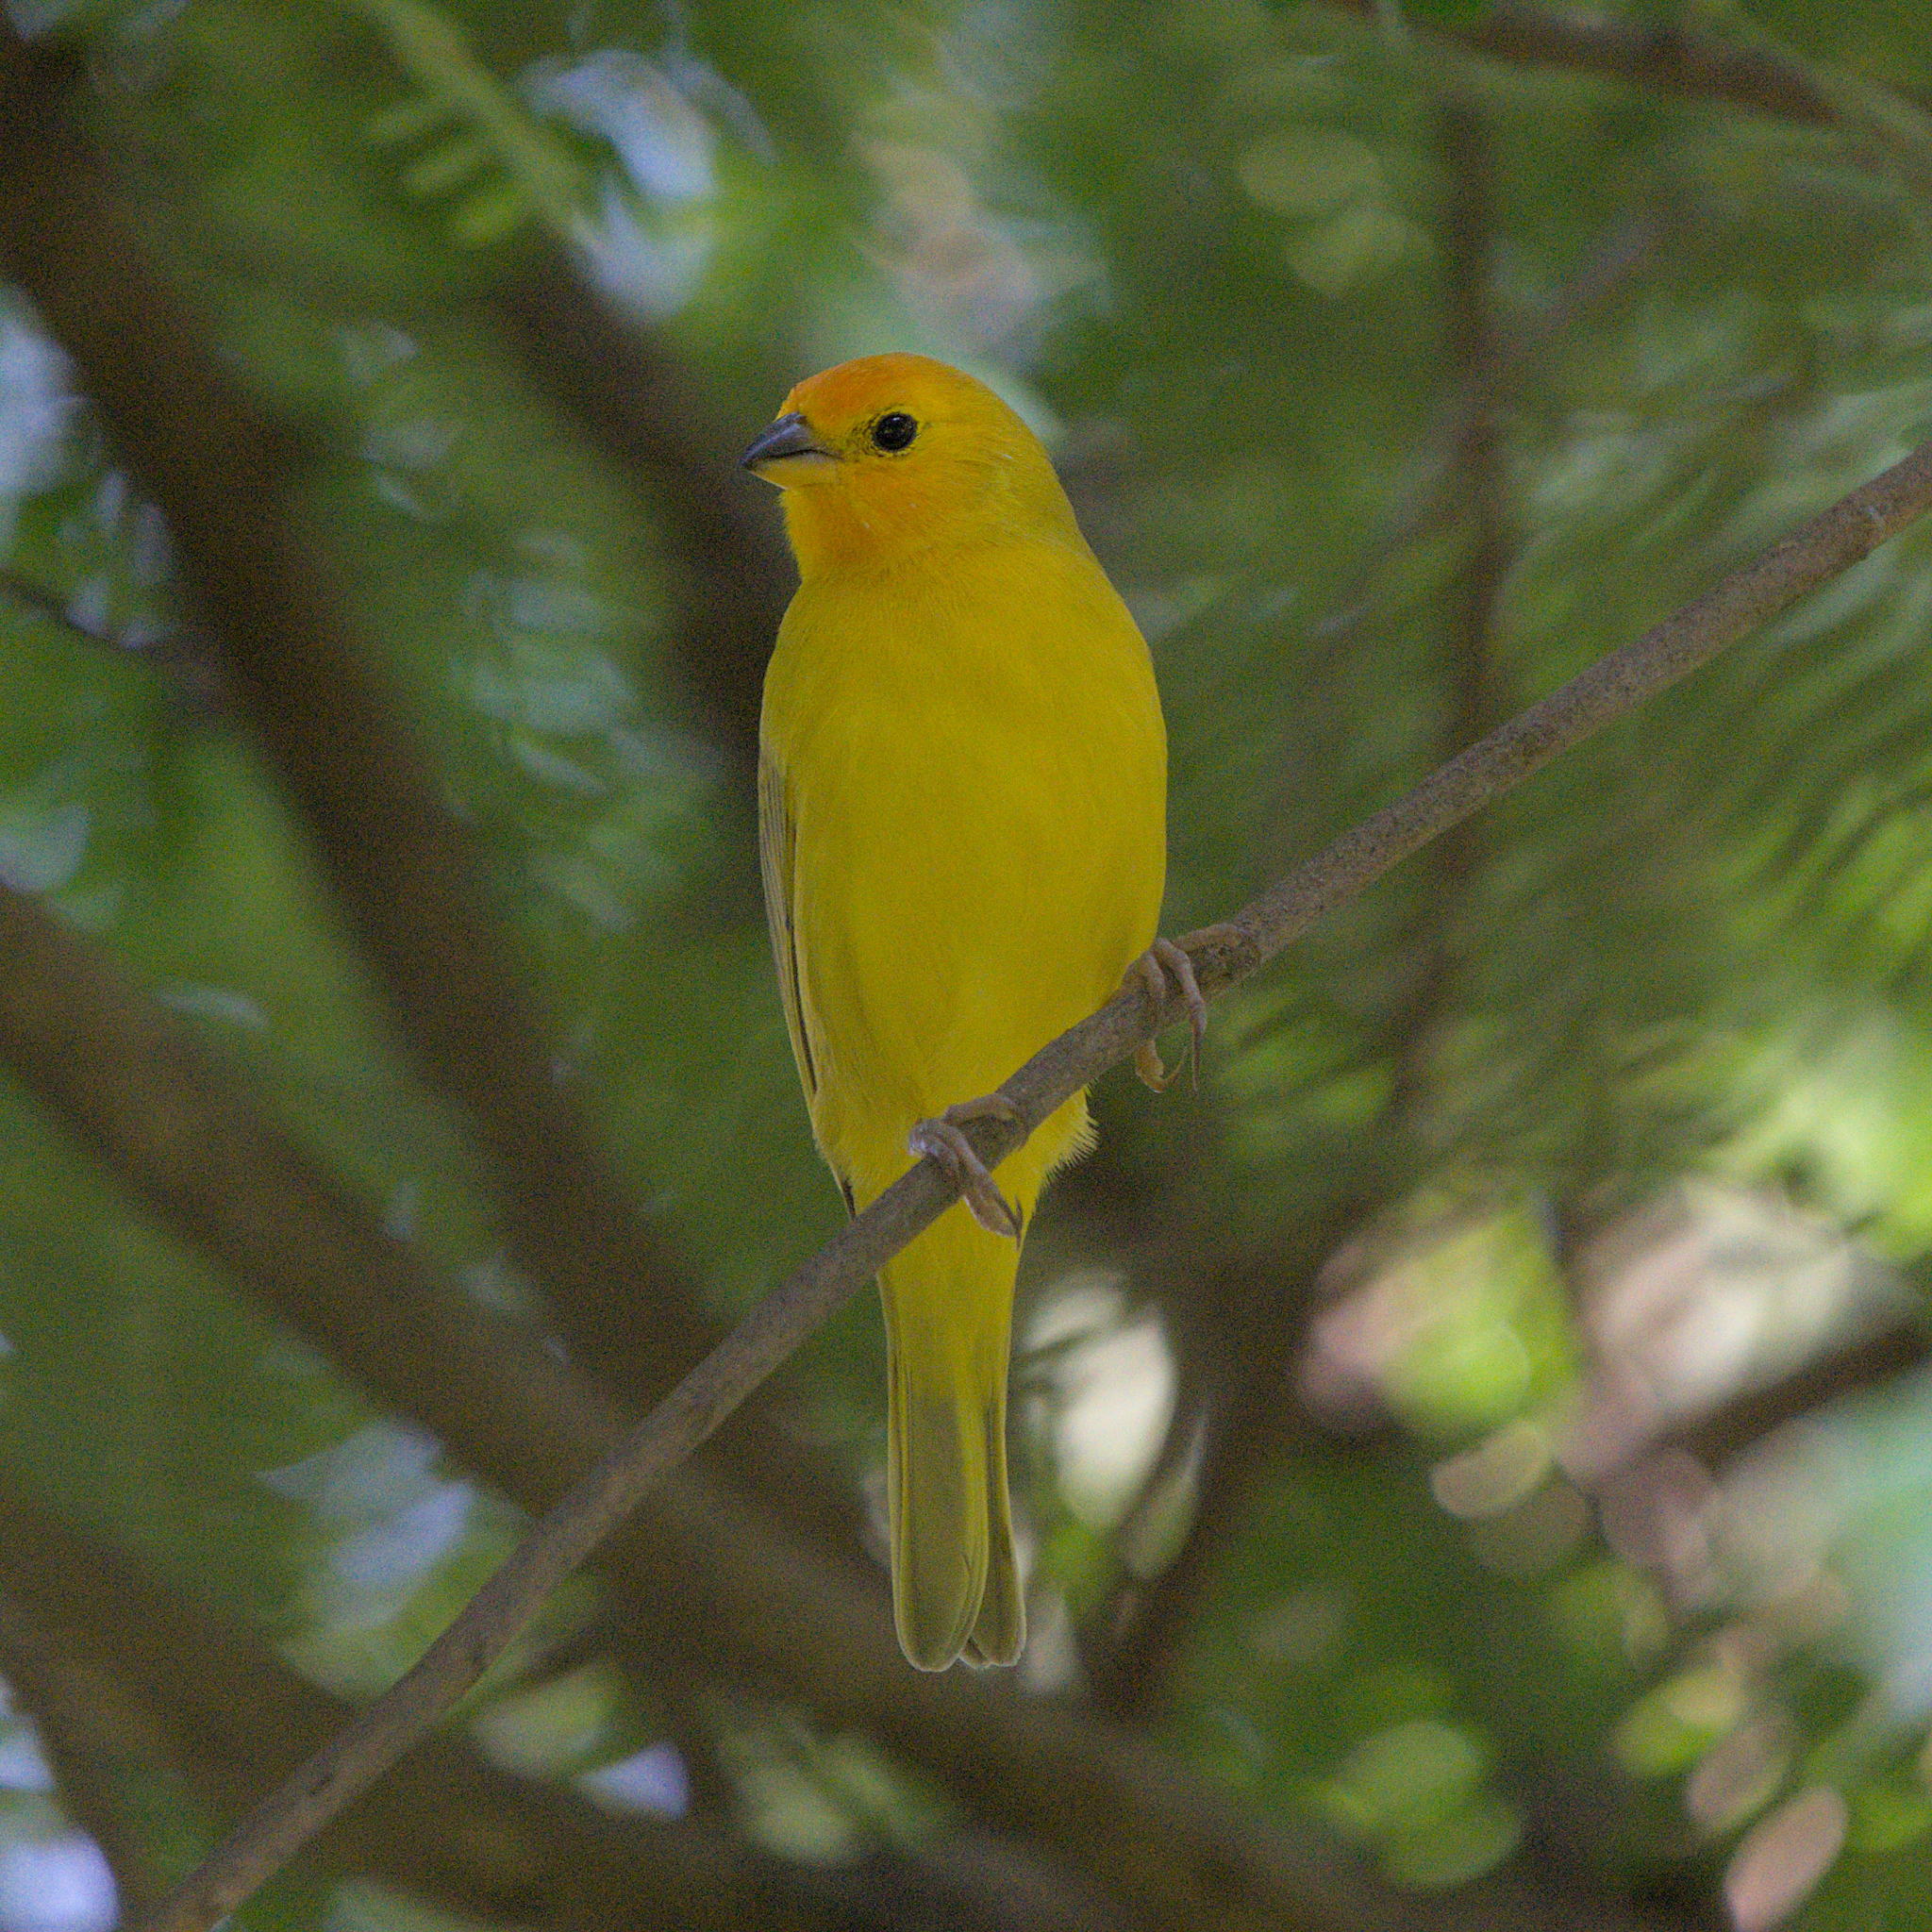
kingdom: Animalia
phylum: Chordata
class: Aves
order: Passeriformes
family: Thraupidae
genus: Sicalis
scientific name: Sicalis flaveola
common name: Saffron finch
